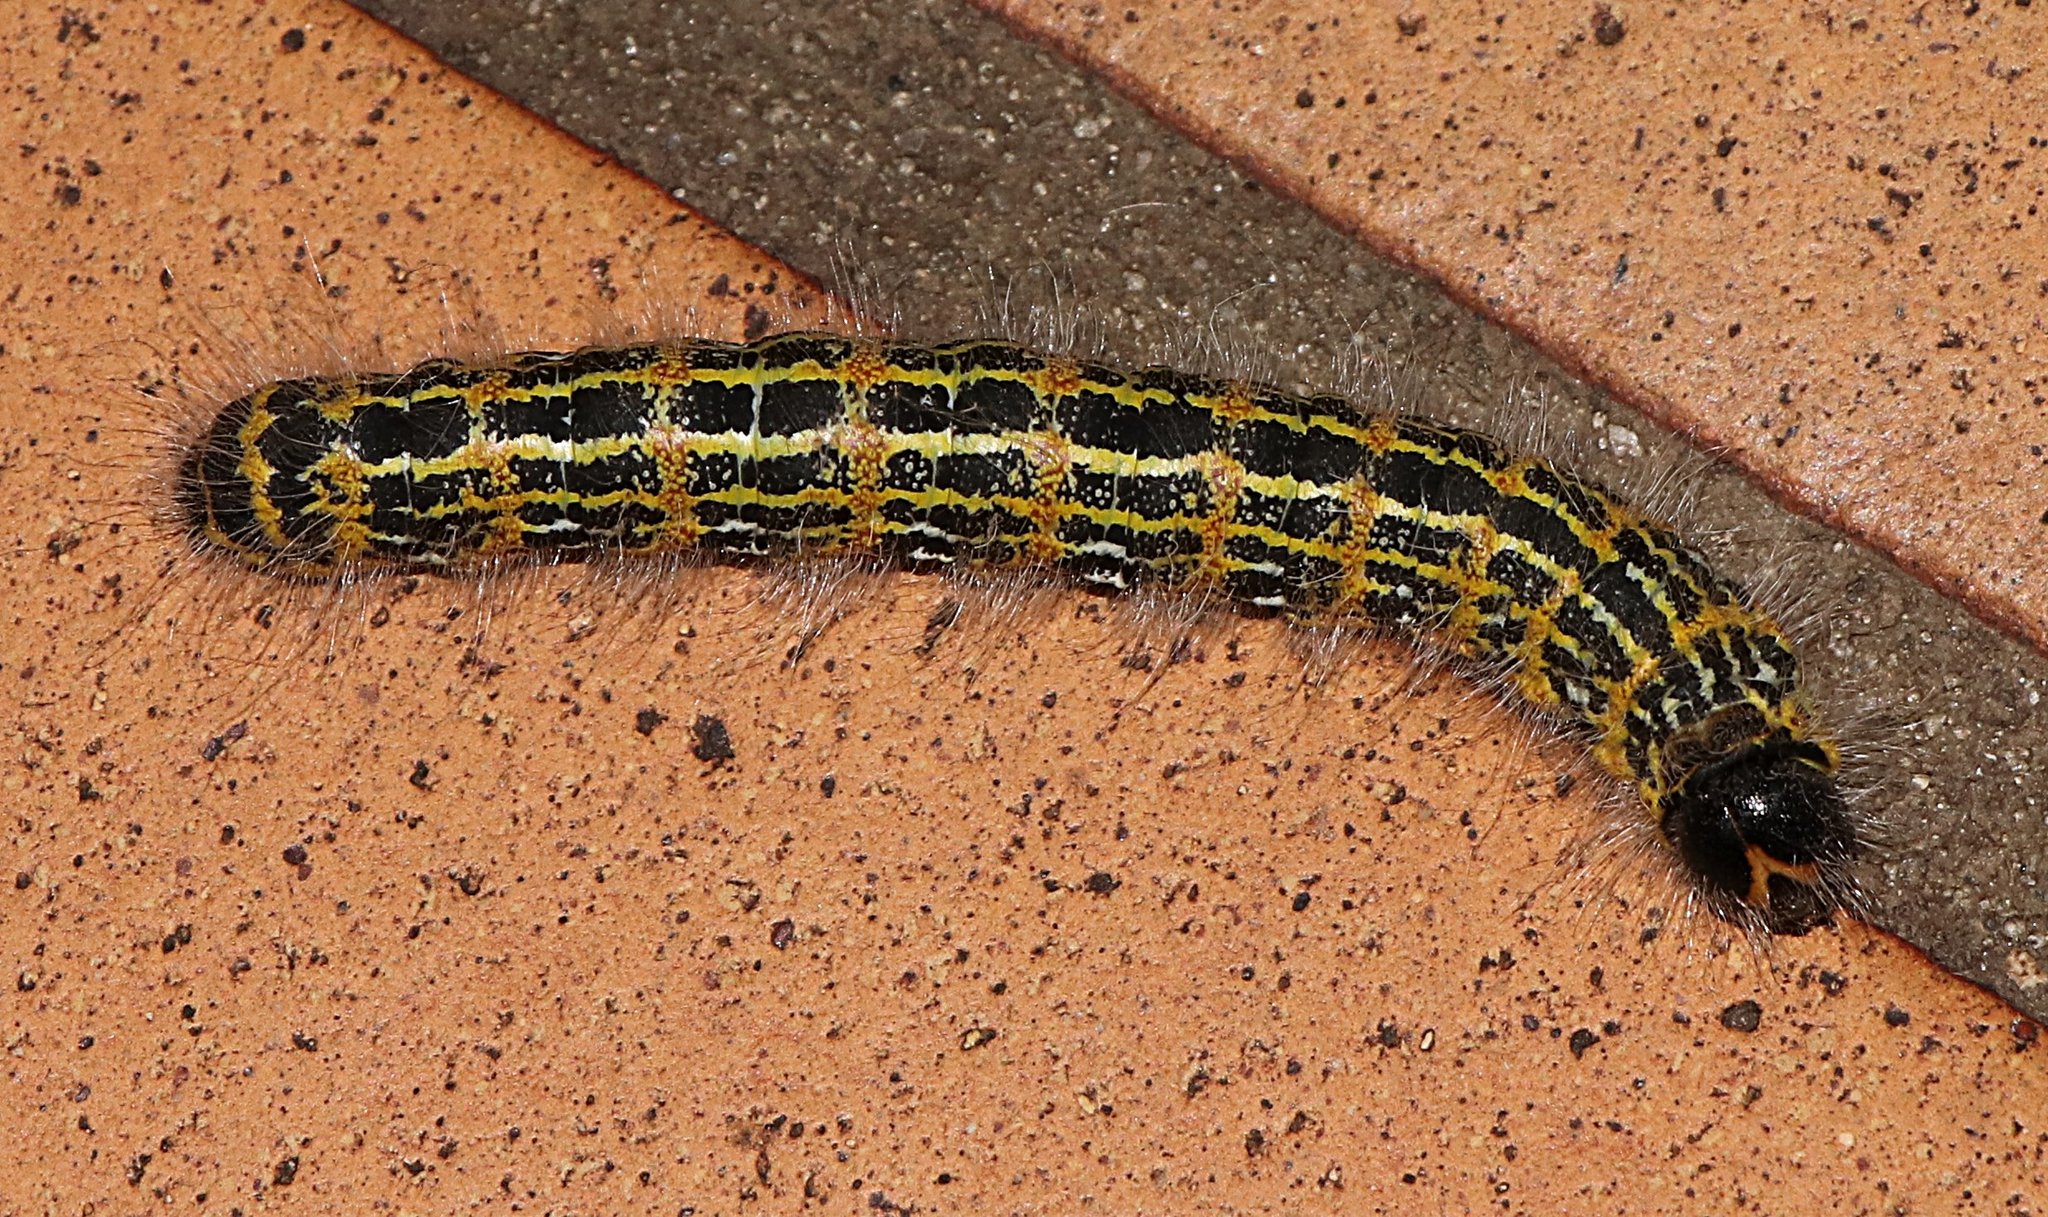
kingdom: Animalia
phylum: Arthropoda
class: Insecta
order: Lepidoptera
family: Notodontidae
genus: Phalera
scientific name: Phalera bucephala
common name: Buff-tip
